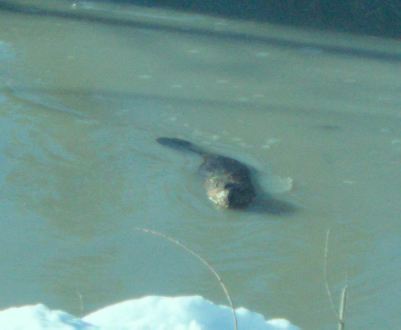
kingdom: Animalia
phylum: Chordata
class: Mammalia
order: Rodentia
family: Castoridae
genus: Castor
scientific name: Castor canadensis
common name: American beaver
